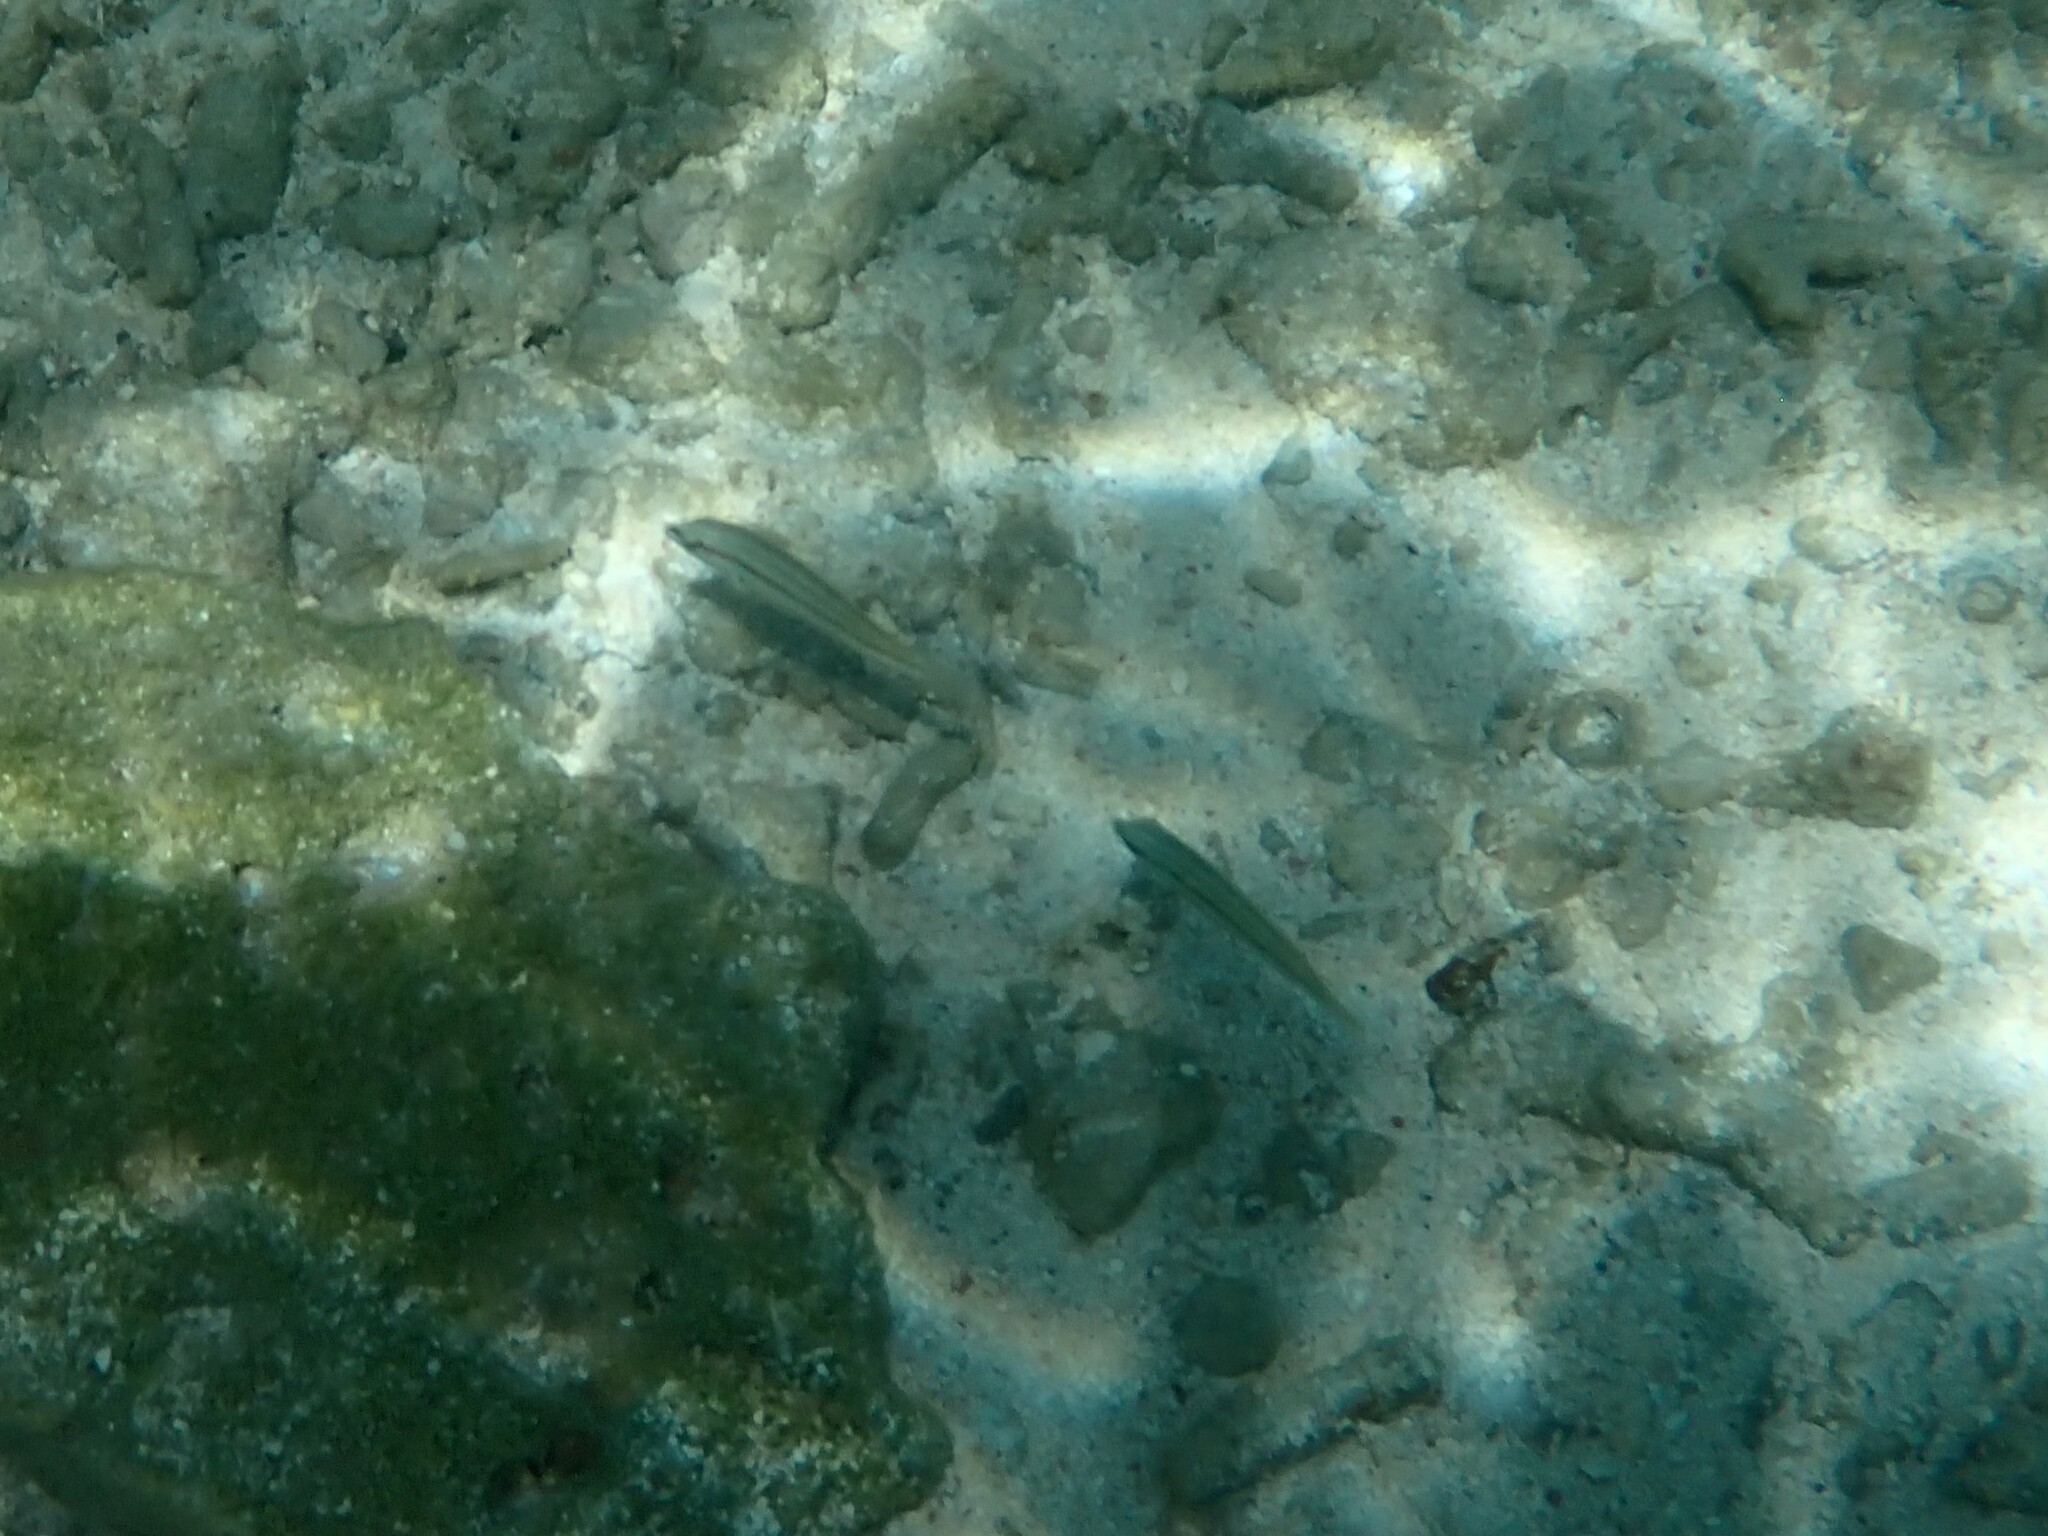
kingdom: Animalia
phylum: Chordata
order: Perciformes
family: Labridae
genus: Halichoeres
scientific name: Halichoeres bivittatus
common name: Slippery dick
